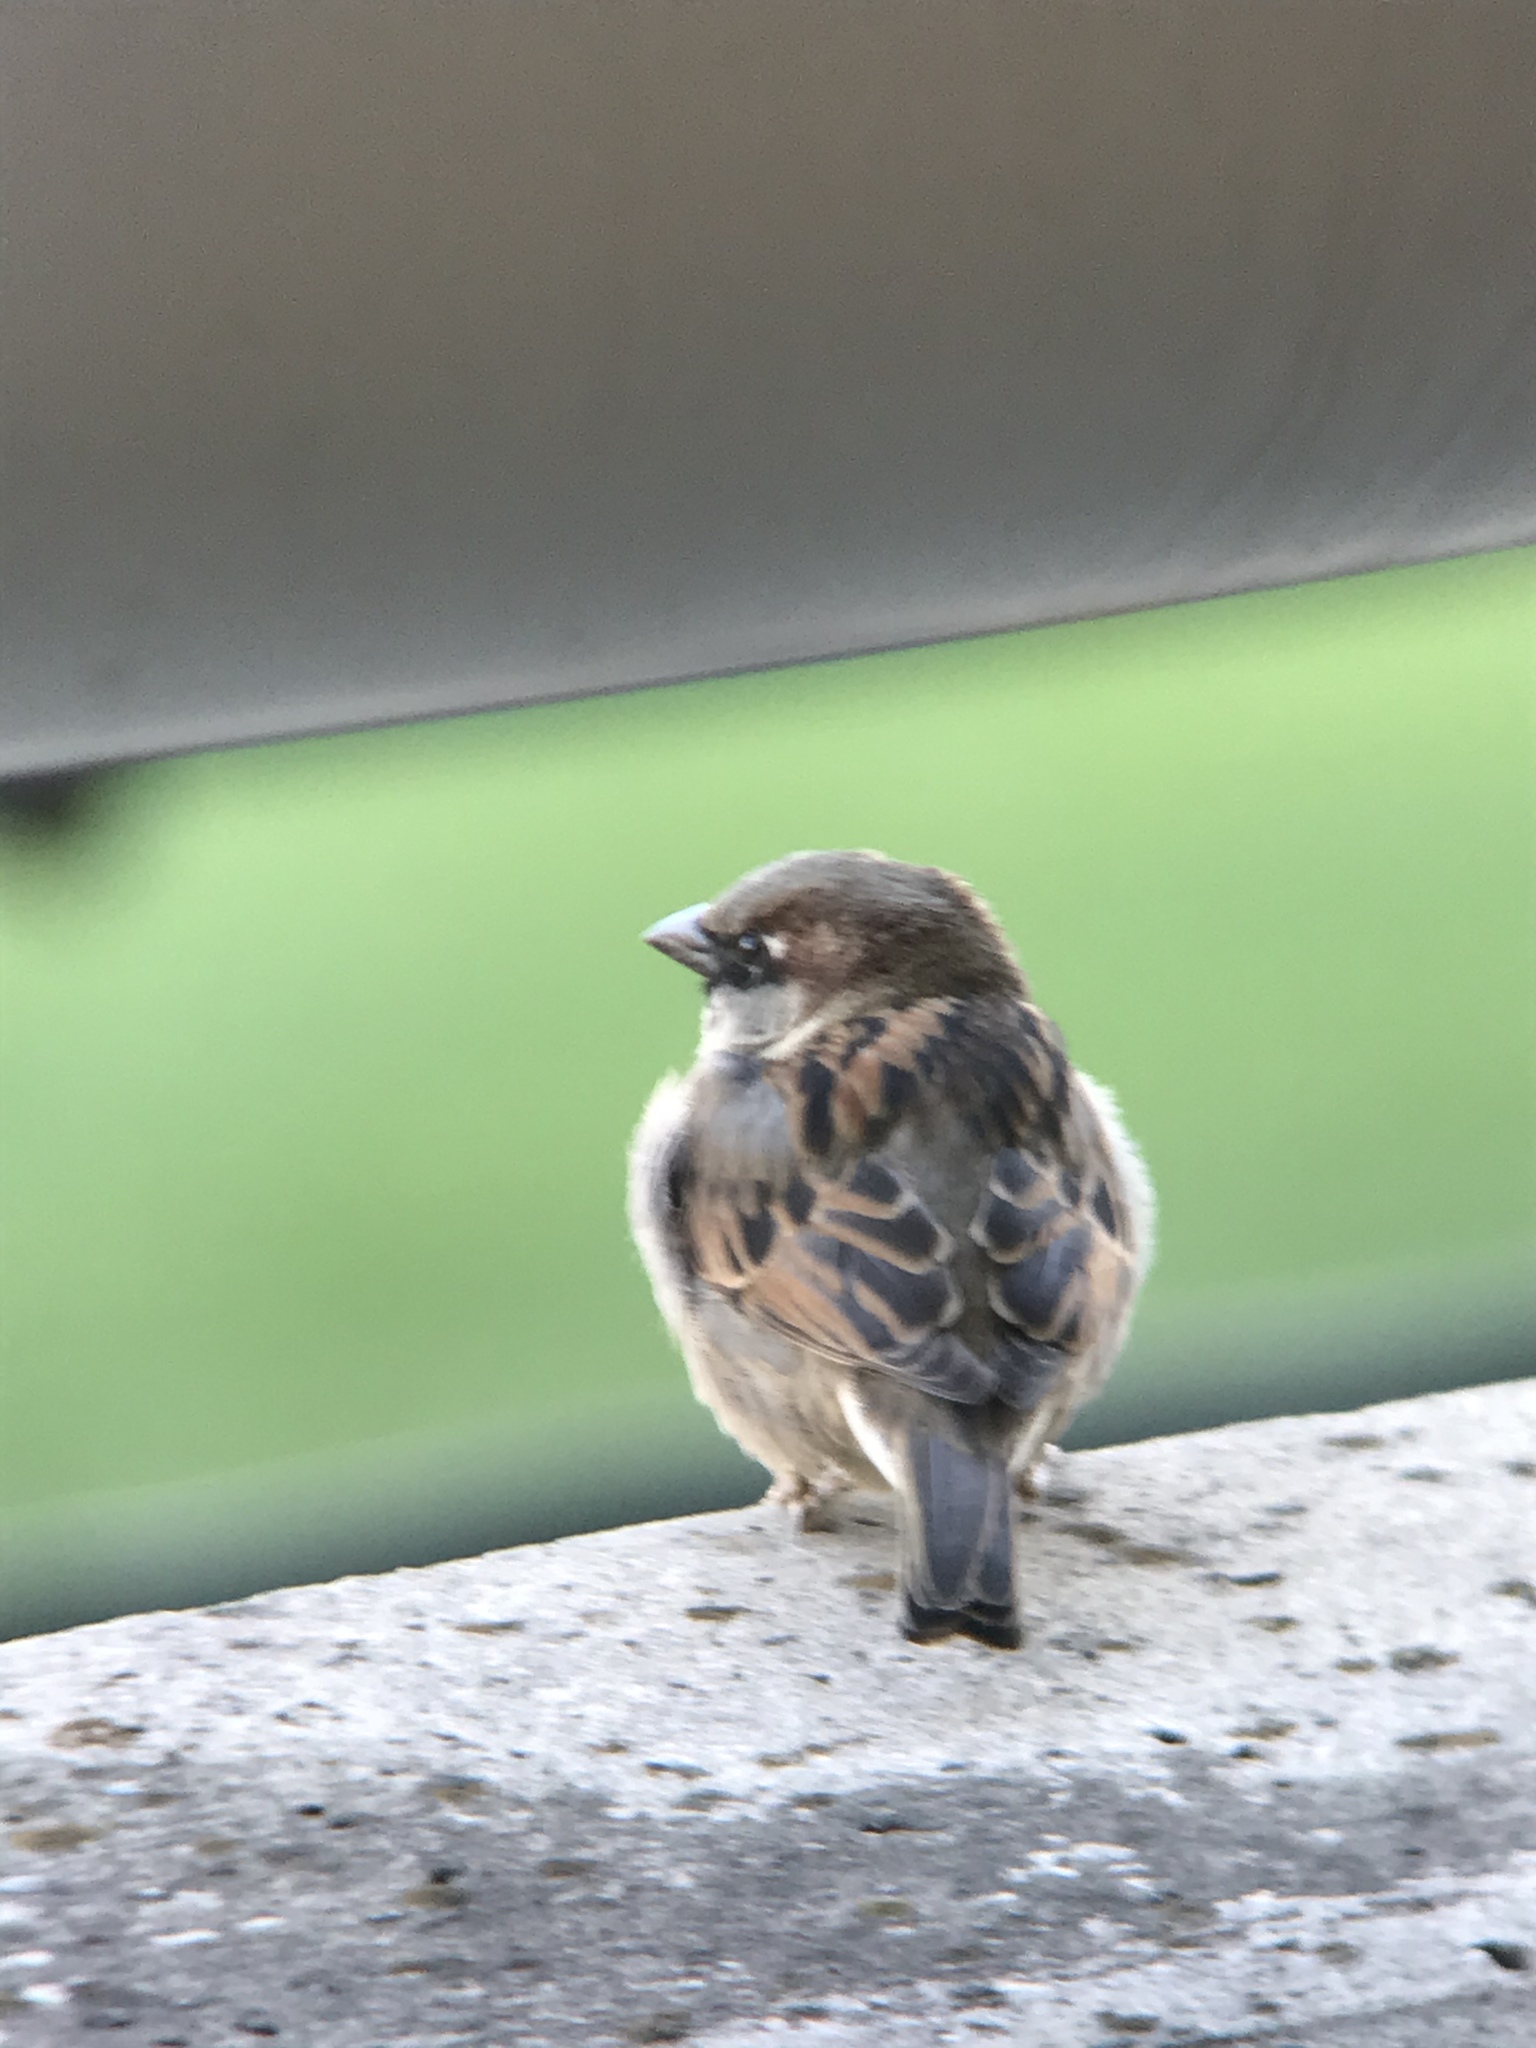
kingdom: Animalia
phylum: Chordata
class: Aves
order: Passeriformes
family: Passeridae
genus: Passer
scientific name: Passer domesticus
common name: House sparrow
